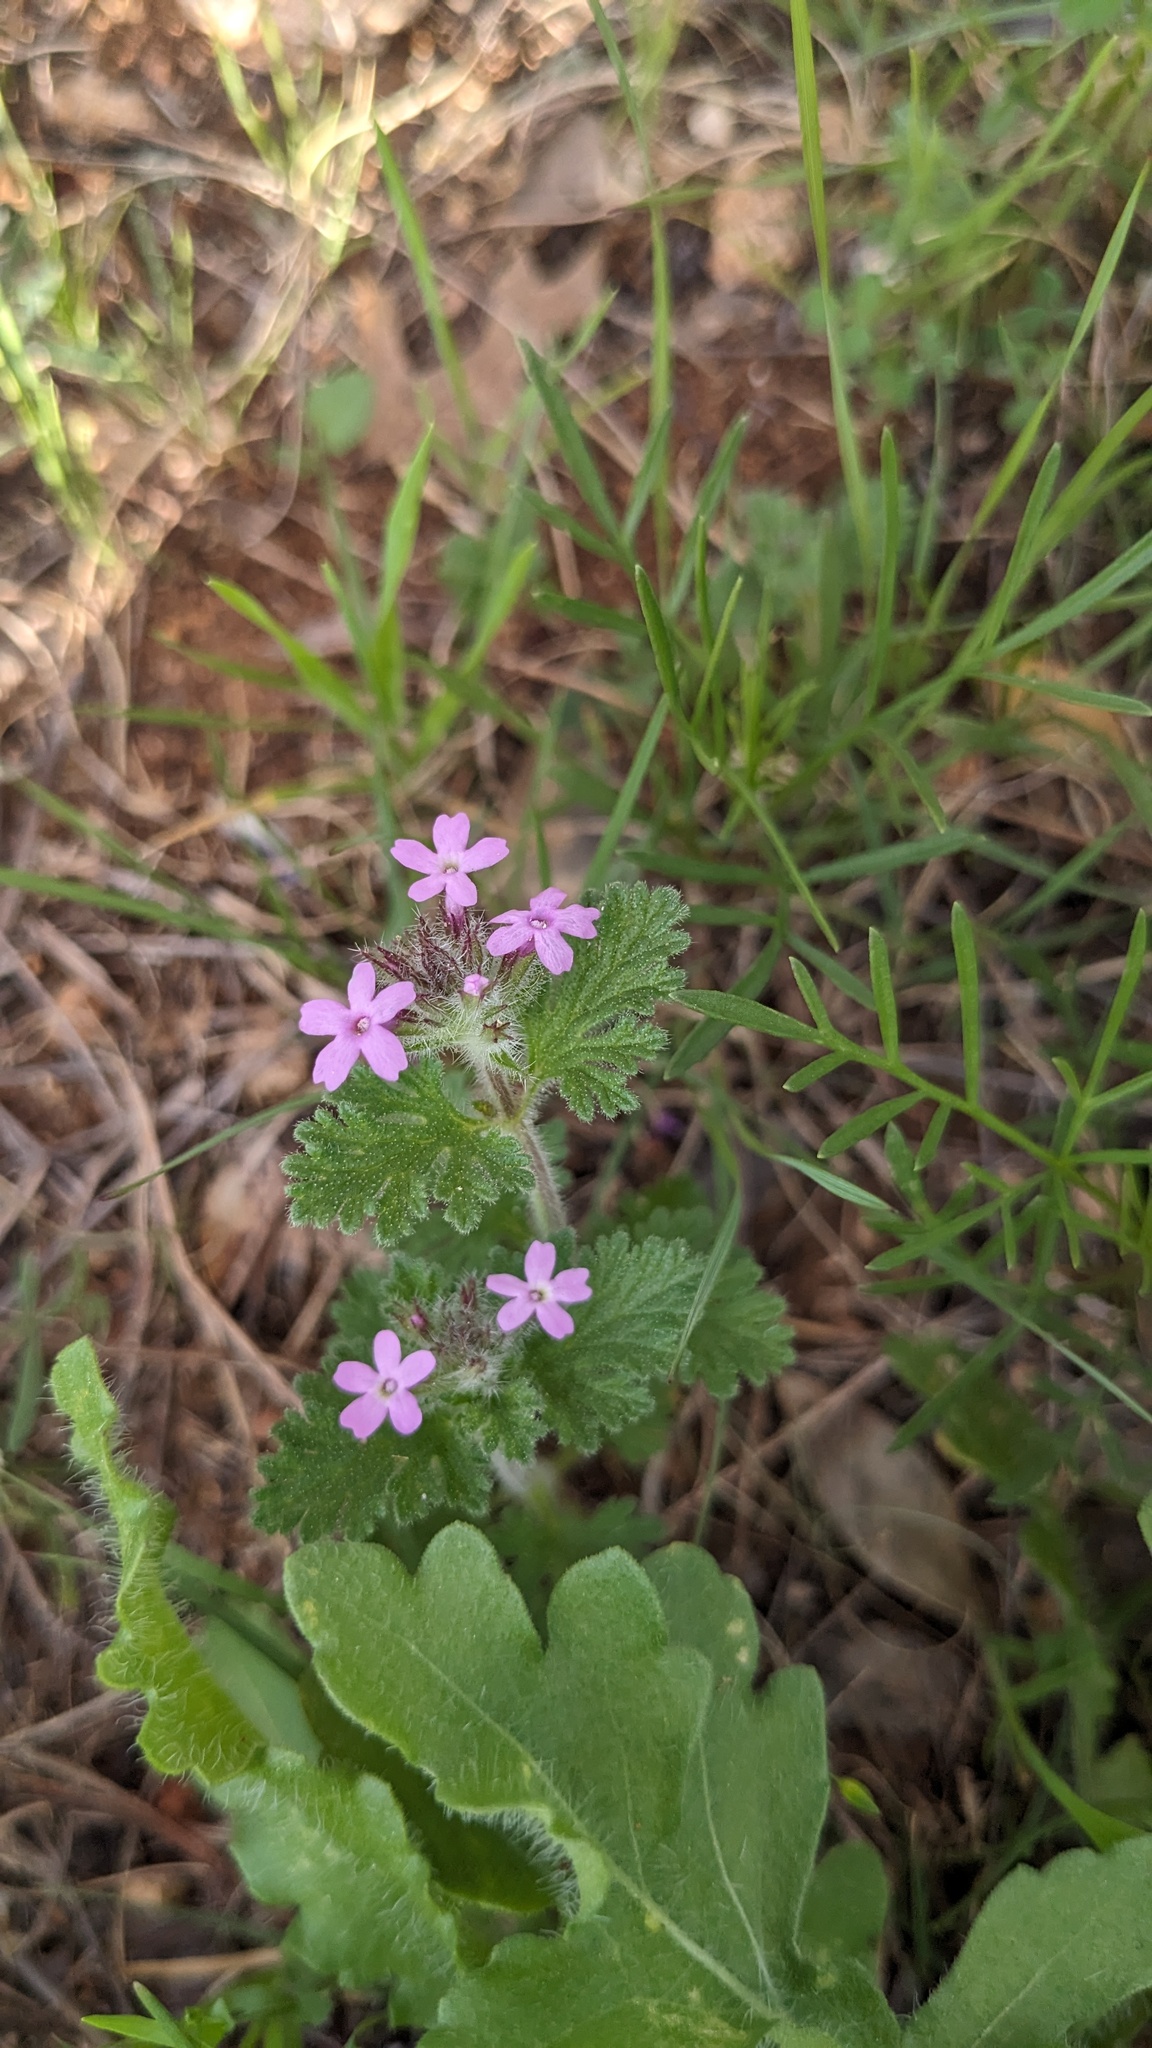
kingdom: Plantae
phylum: Tracheophyta
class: Magnoliopsida
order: Lamiales
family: Verbenaceae
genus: Verbena
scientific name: Verbena pumila
